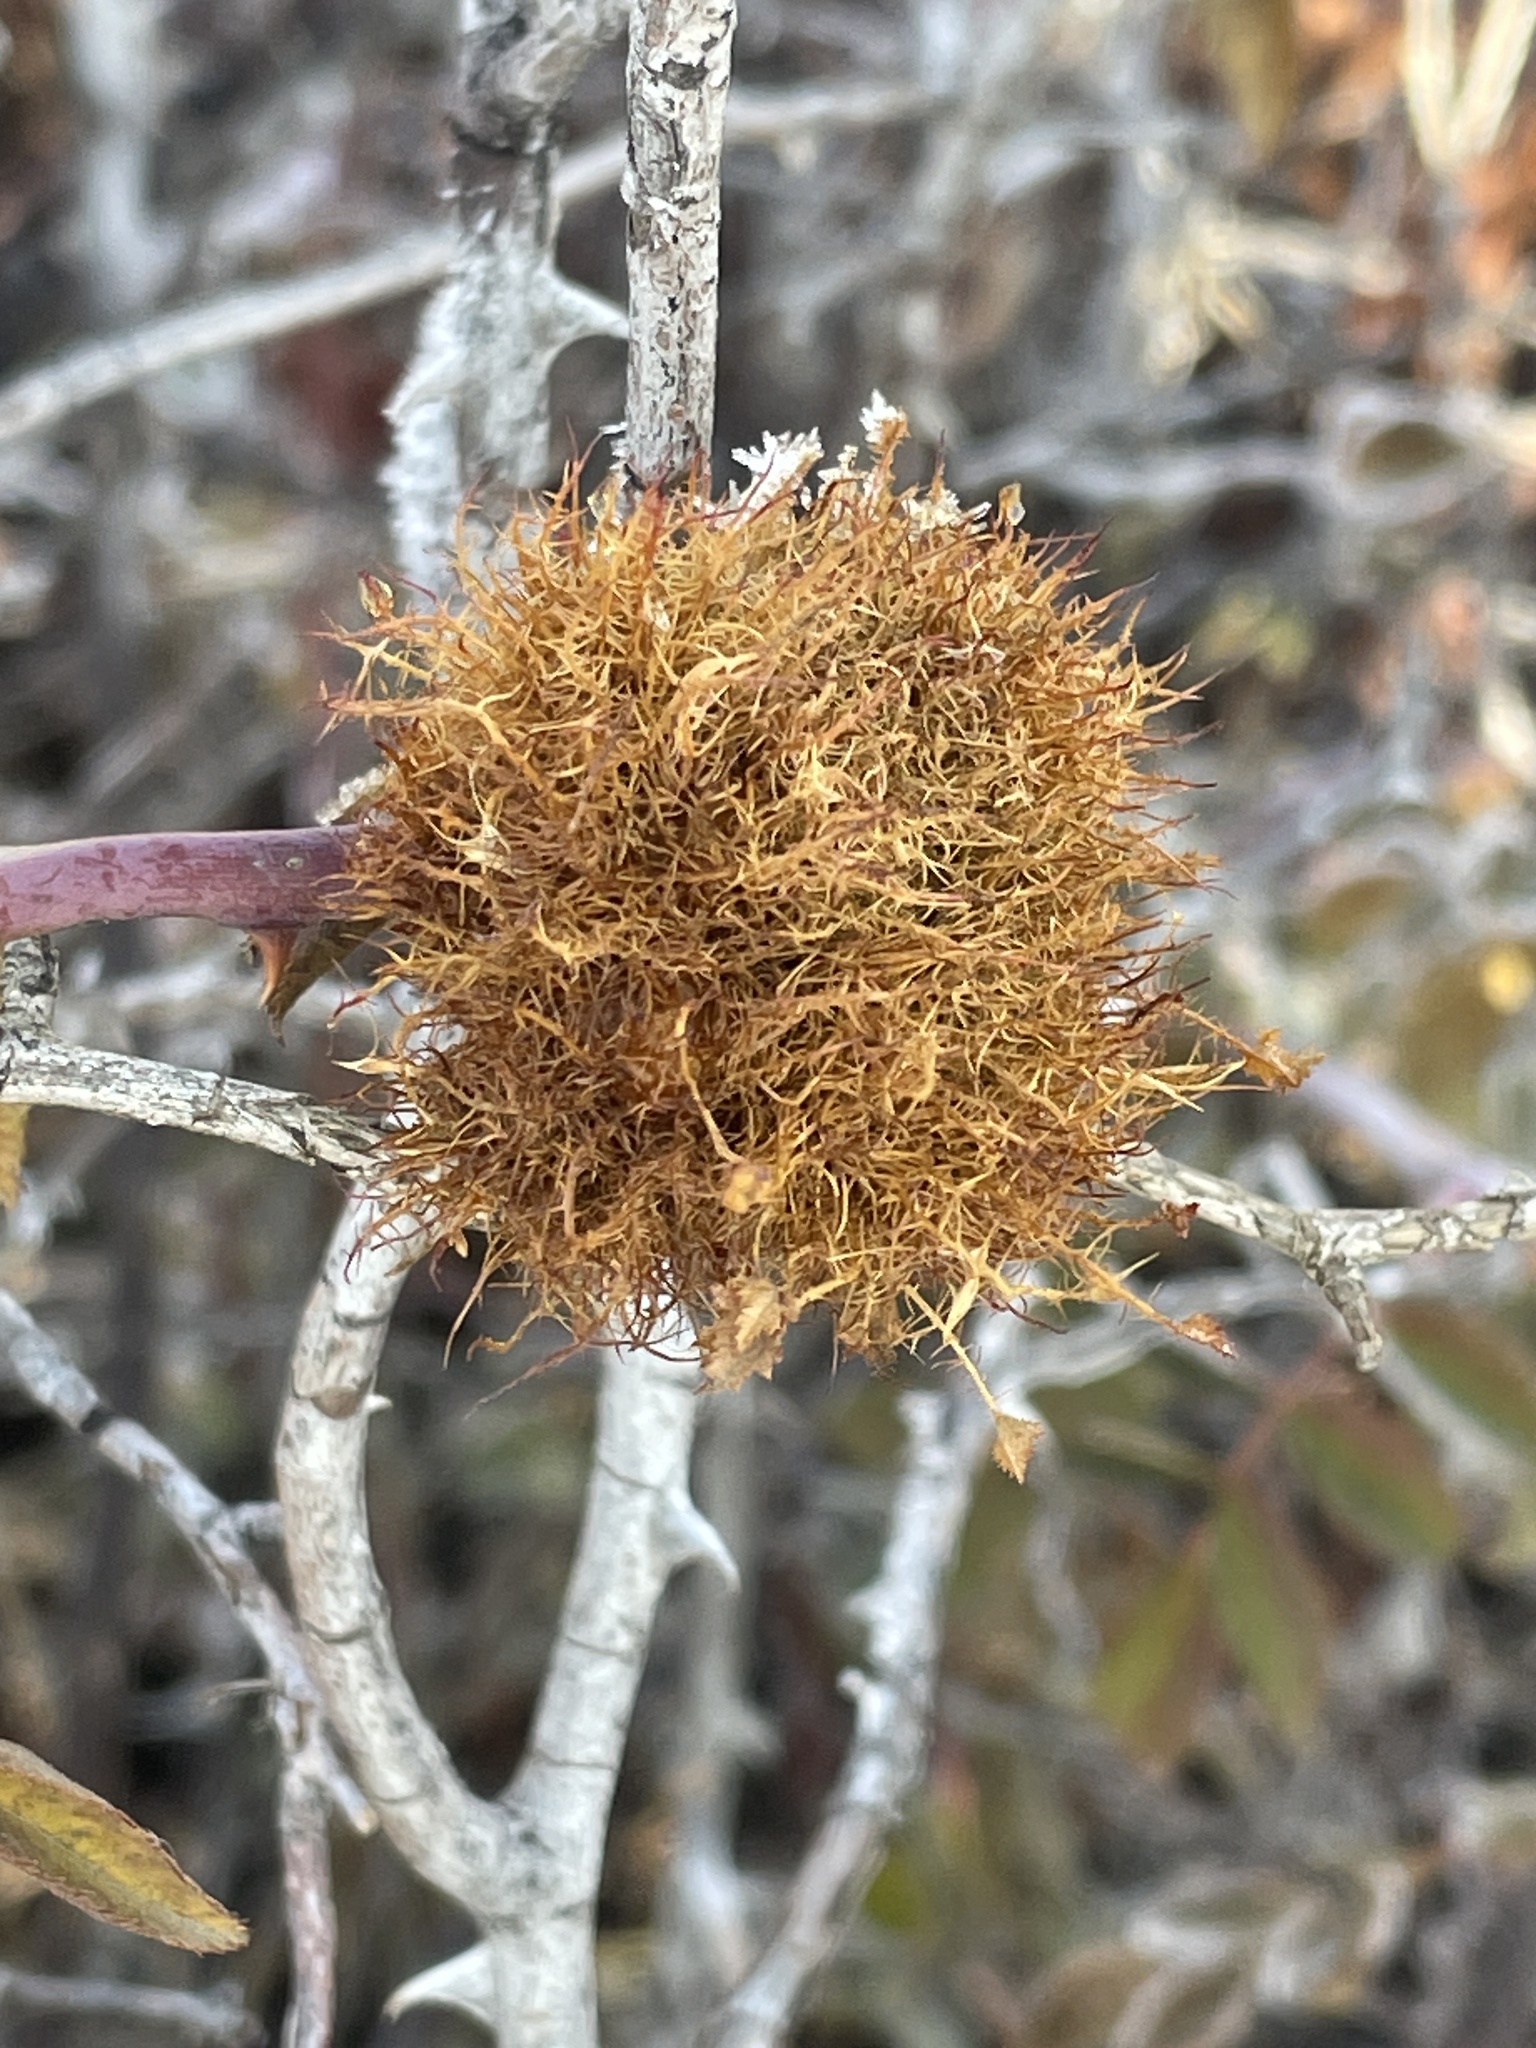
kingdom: Animalia
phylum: Arthropoda
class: Insecta
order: Hymenoptera
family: Cynipidae
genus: Diplolepis
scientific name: Diplolepis rosae
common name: Bedeguar gall
